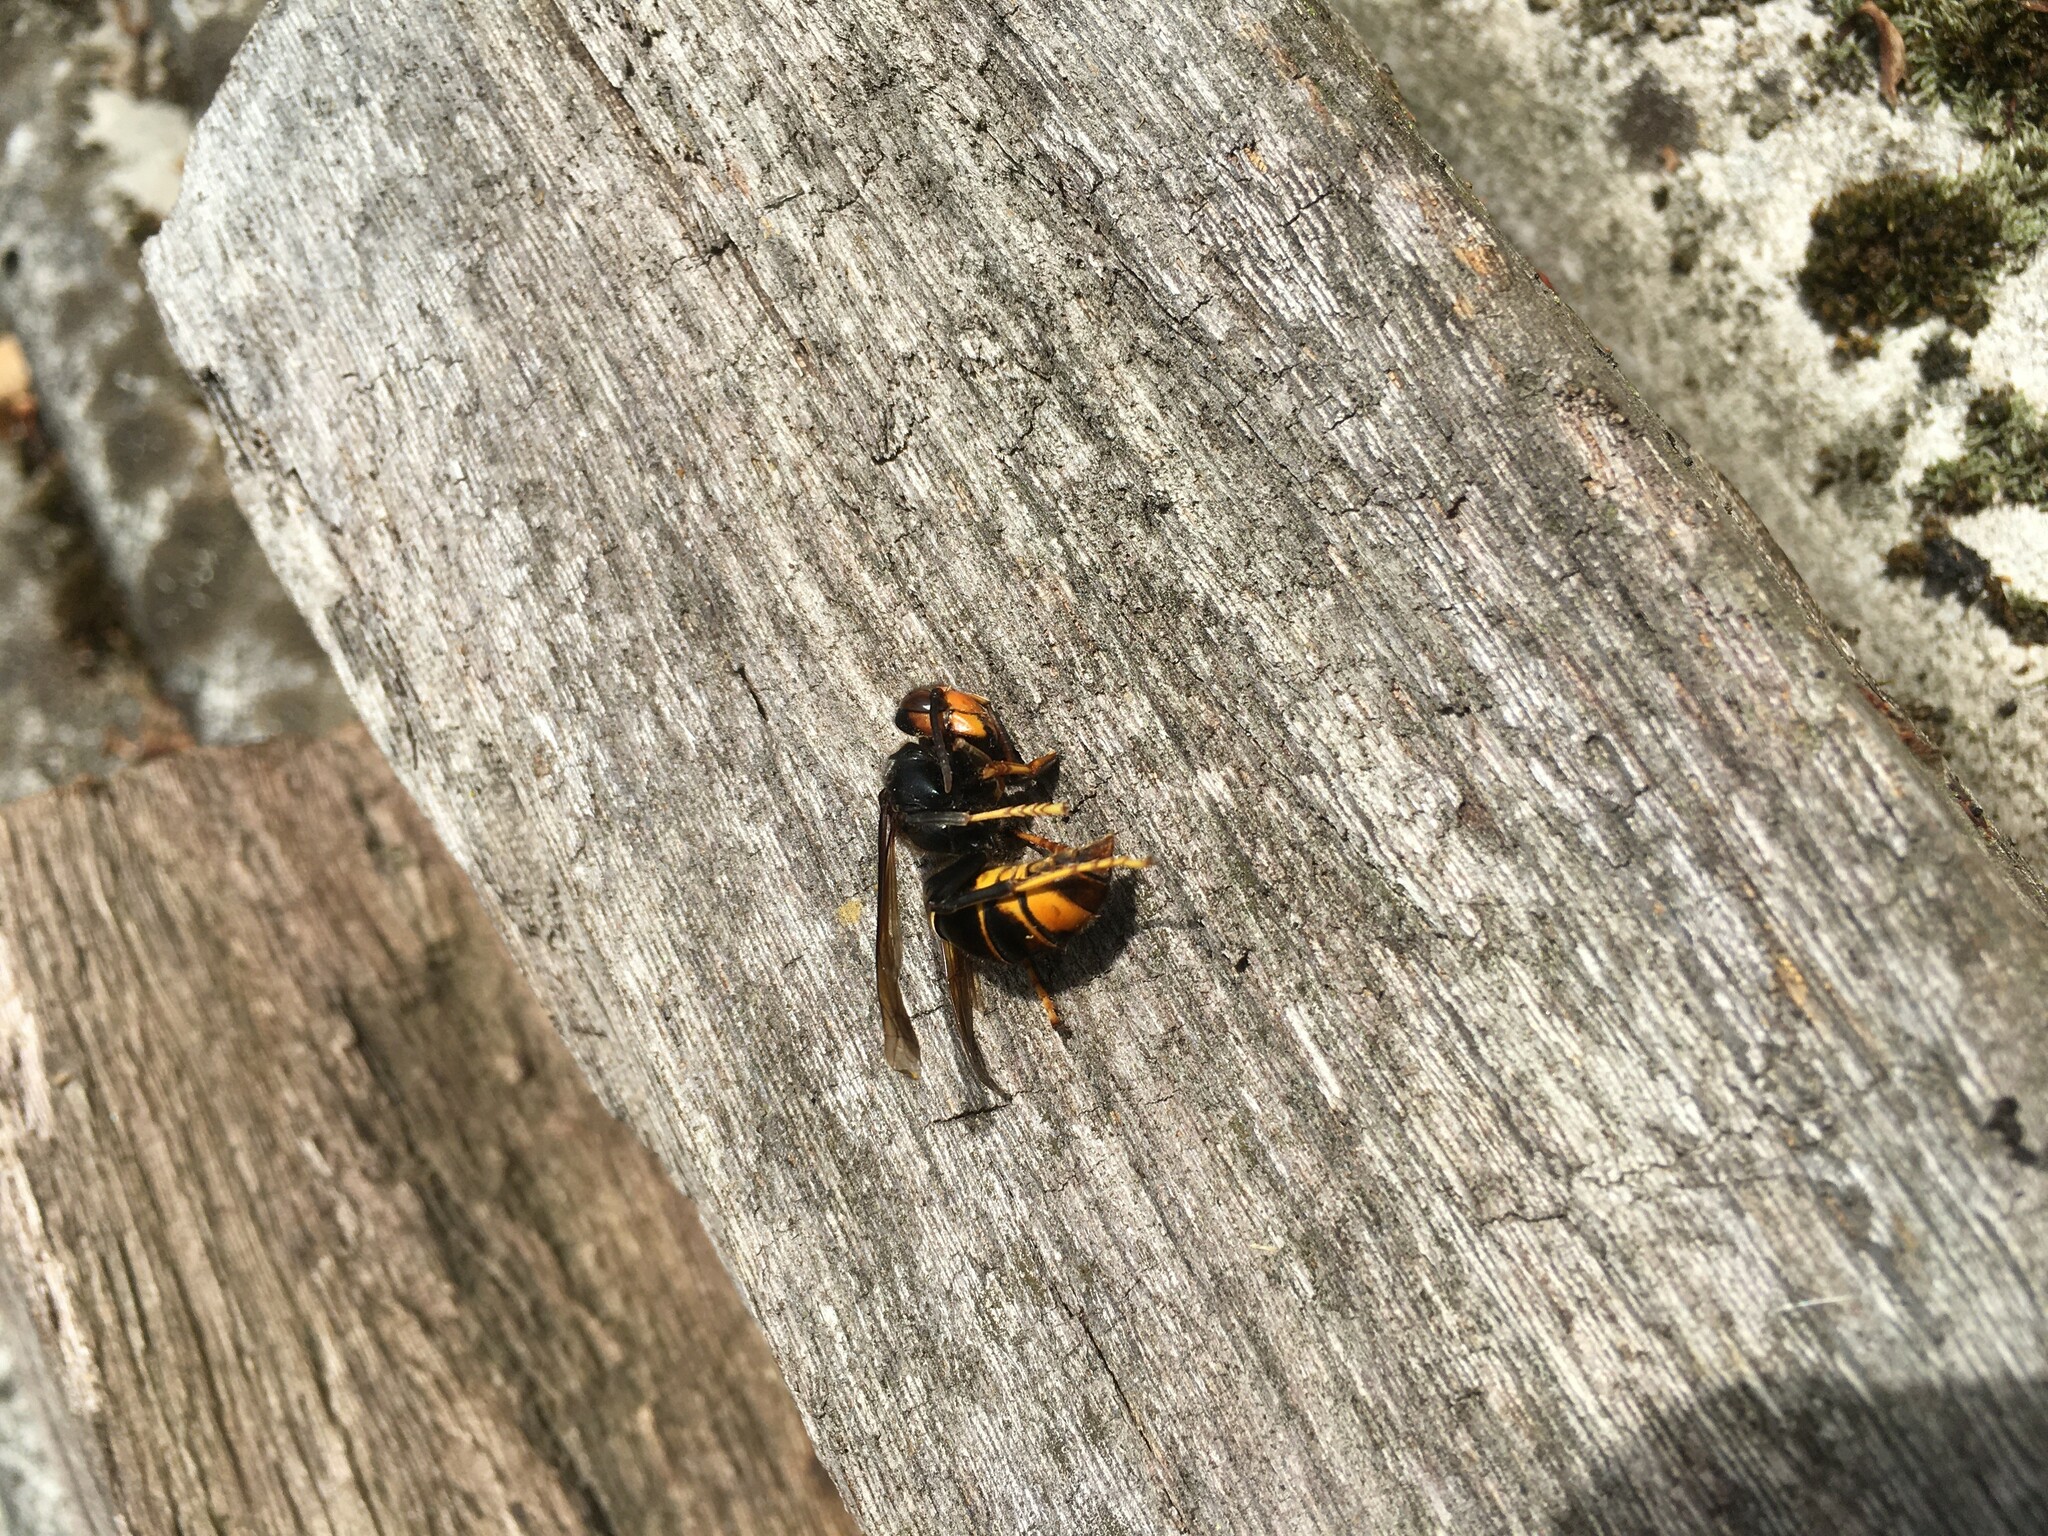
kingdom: Animalia
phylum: Arthropoda
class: Insecta
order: Hymenoptera
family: Vespidae
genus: Vespa
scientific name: Vespa velutina
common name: Asian hornet
